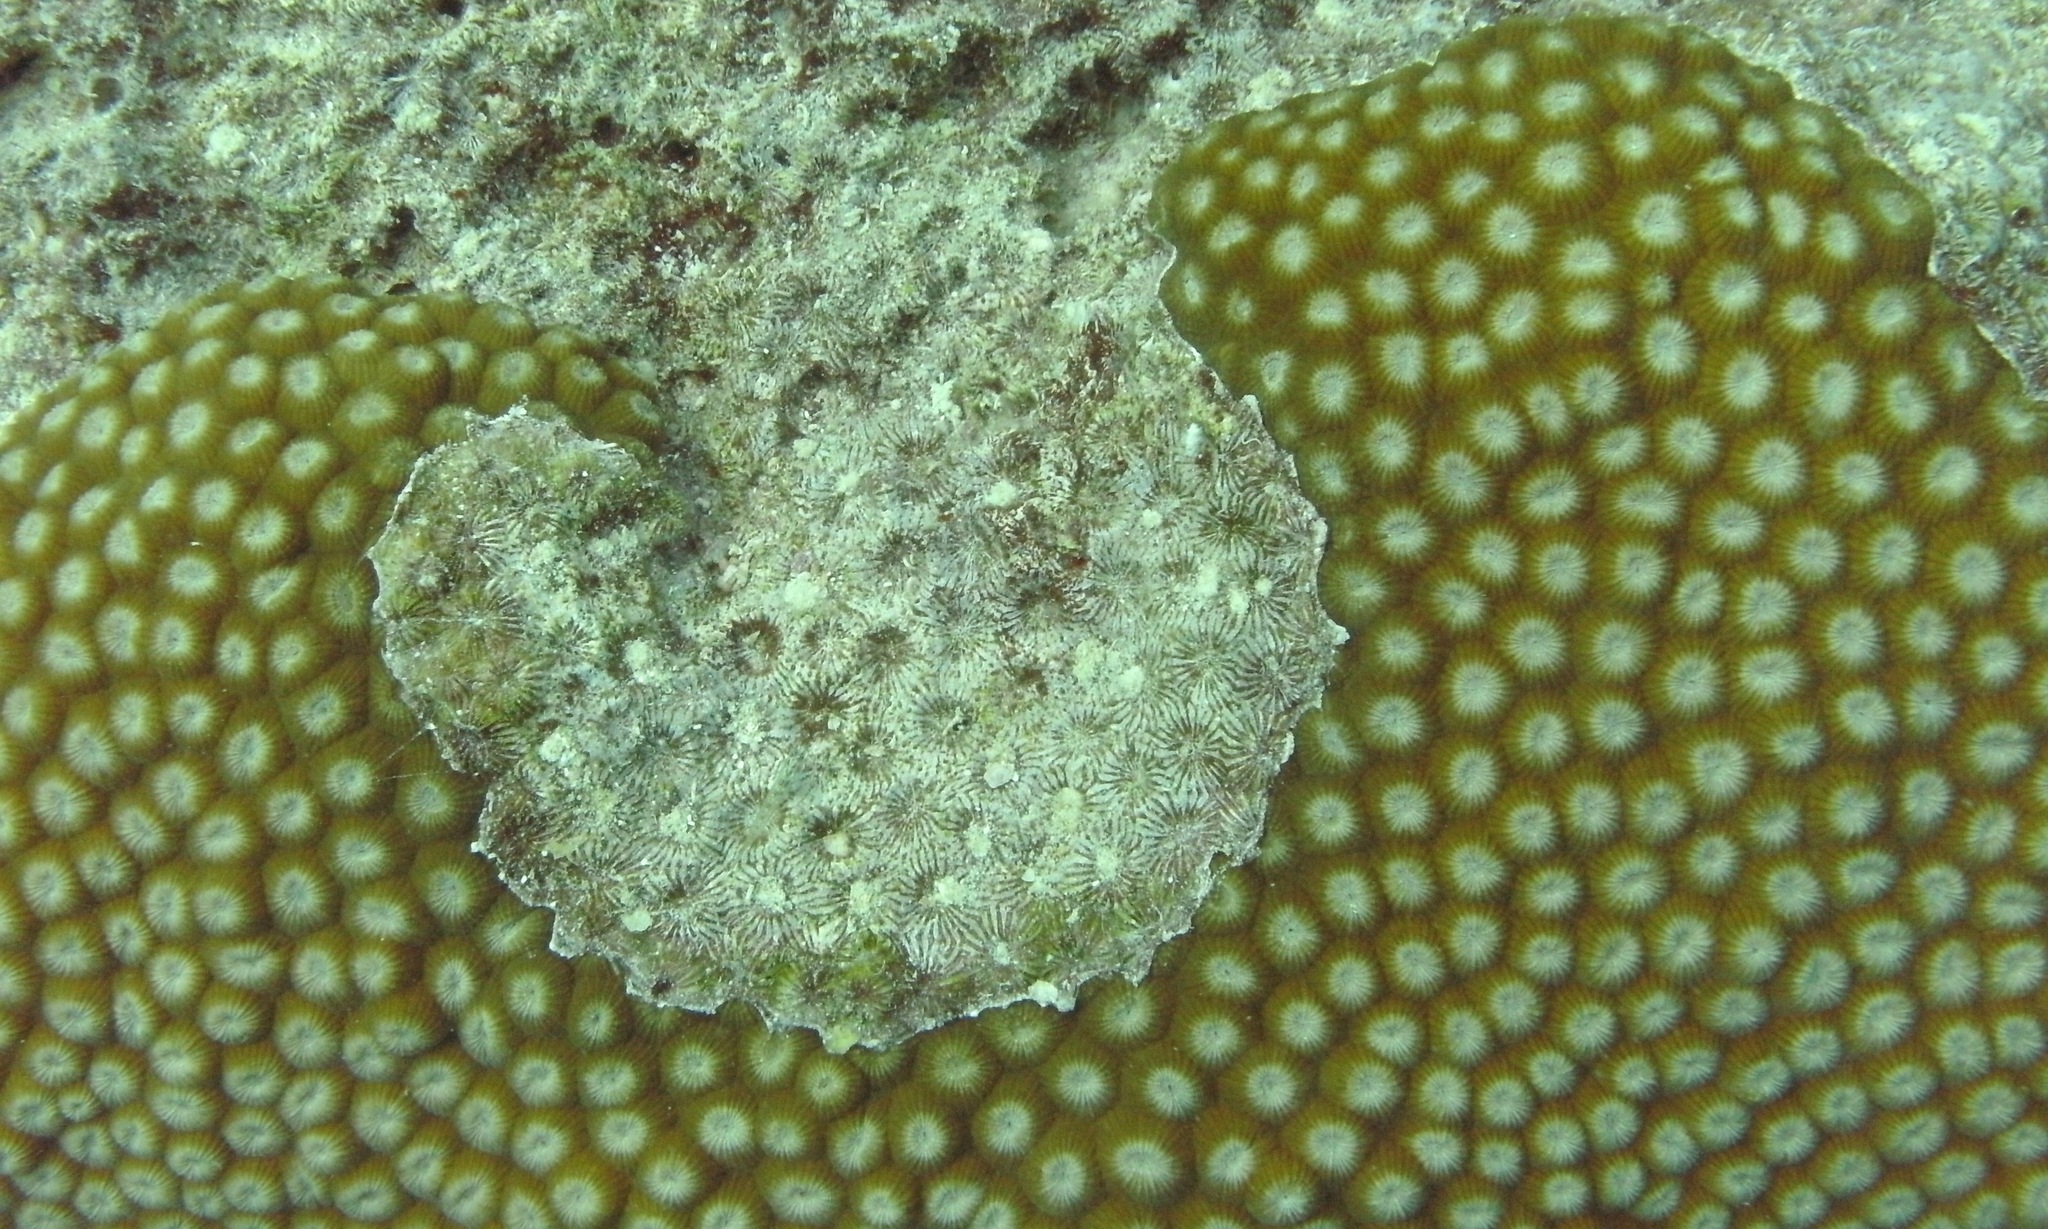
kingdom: Animalia
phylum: Cnidaria
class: Anthozoa
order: Scleractinia
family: Diploastraeidae
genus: Diploastrea
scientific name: Diploastrea heliopora
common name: Double-star coral
